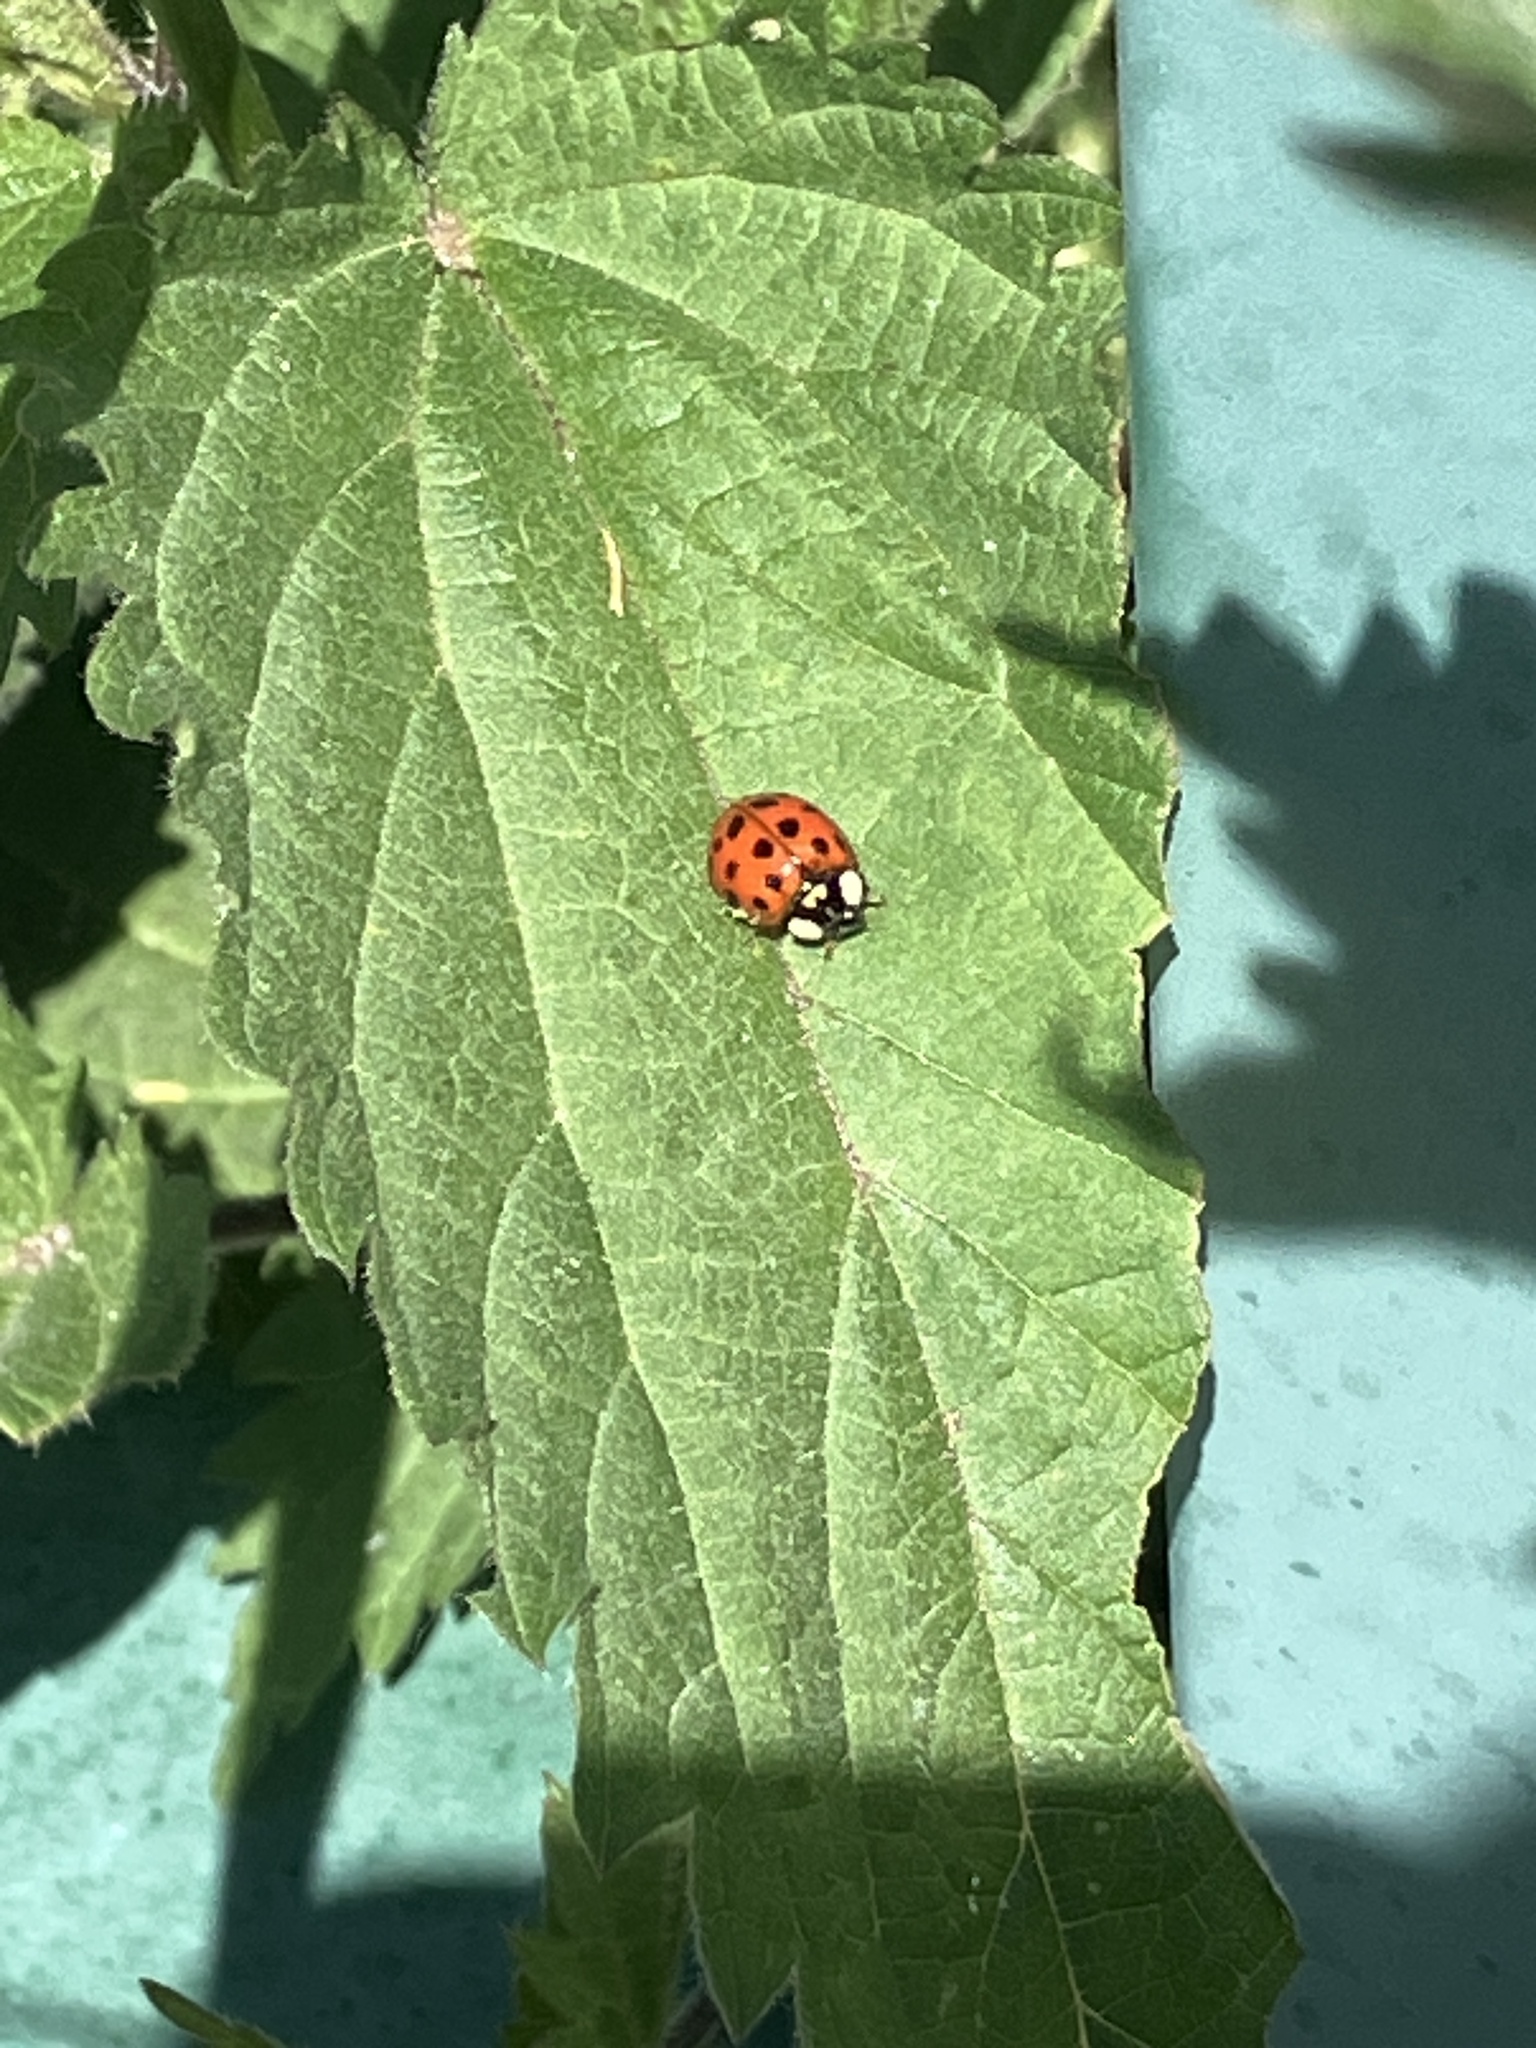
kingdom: Animalia
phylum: Arthropoda
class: Insecta
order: Coleoptera
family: Coccinellidae
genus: Harmonia
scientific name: Harmonia axyridis
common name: Harlequin ladybird
